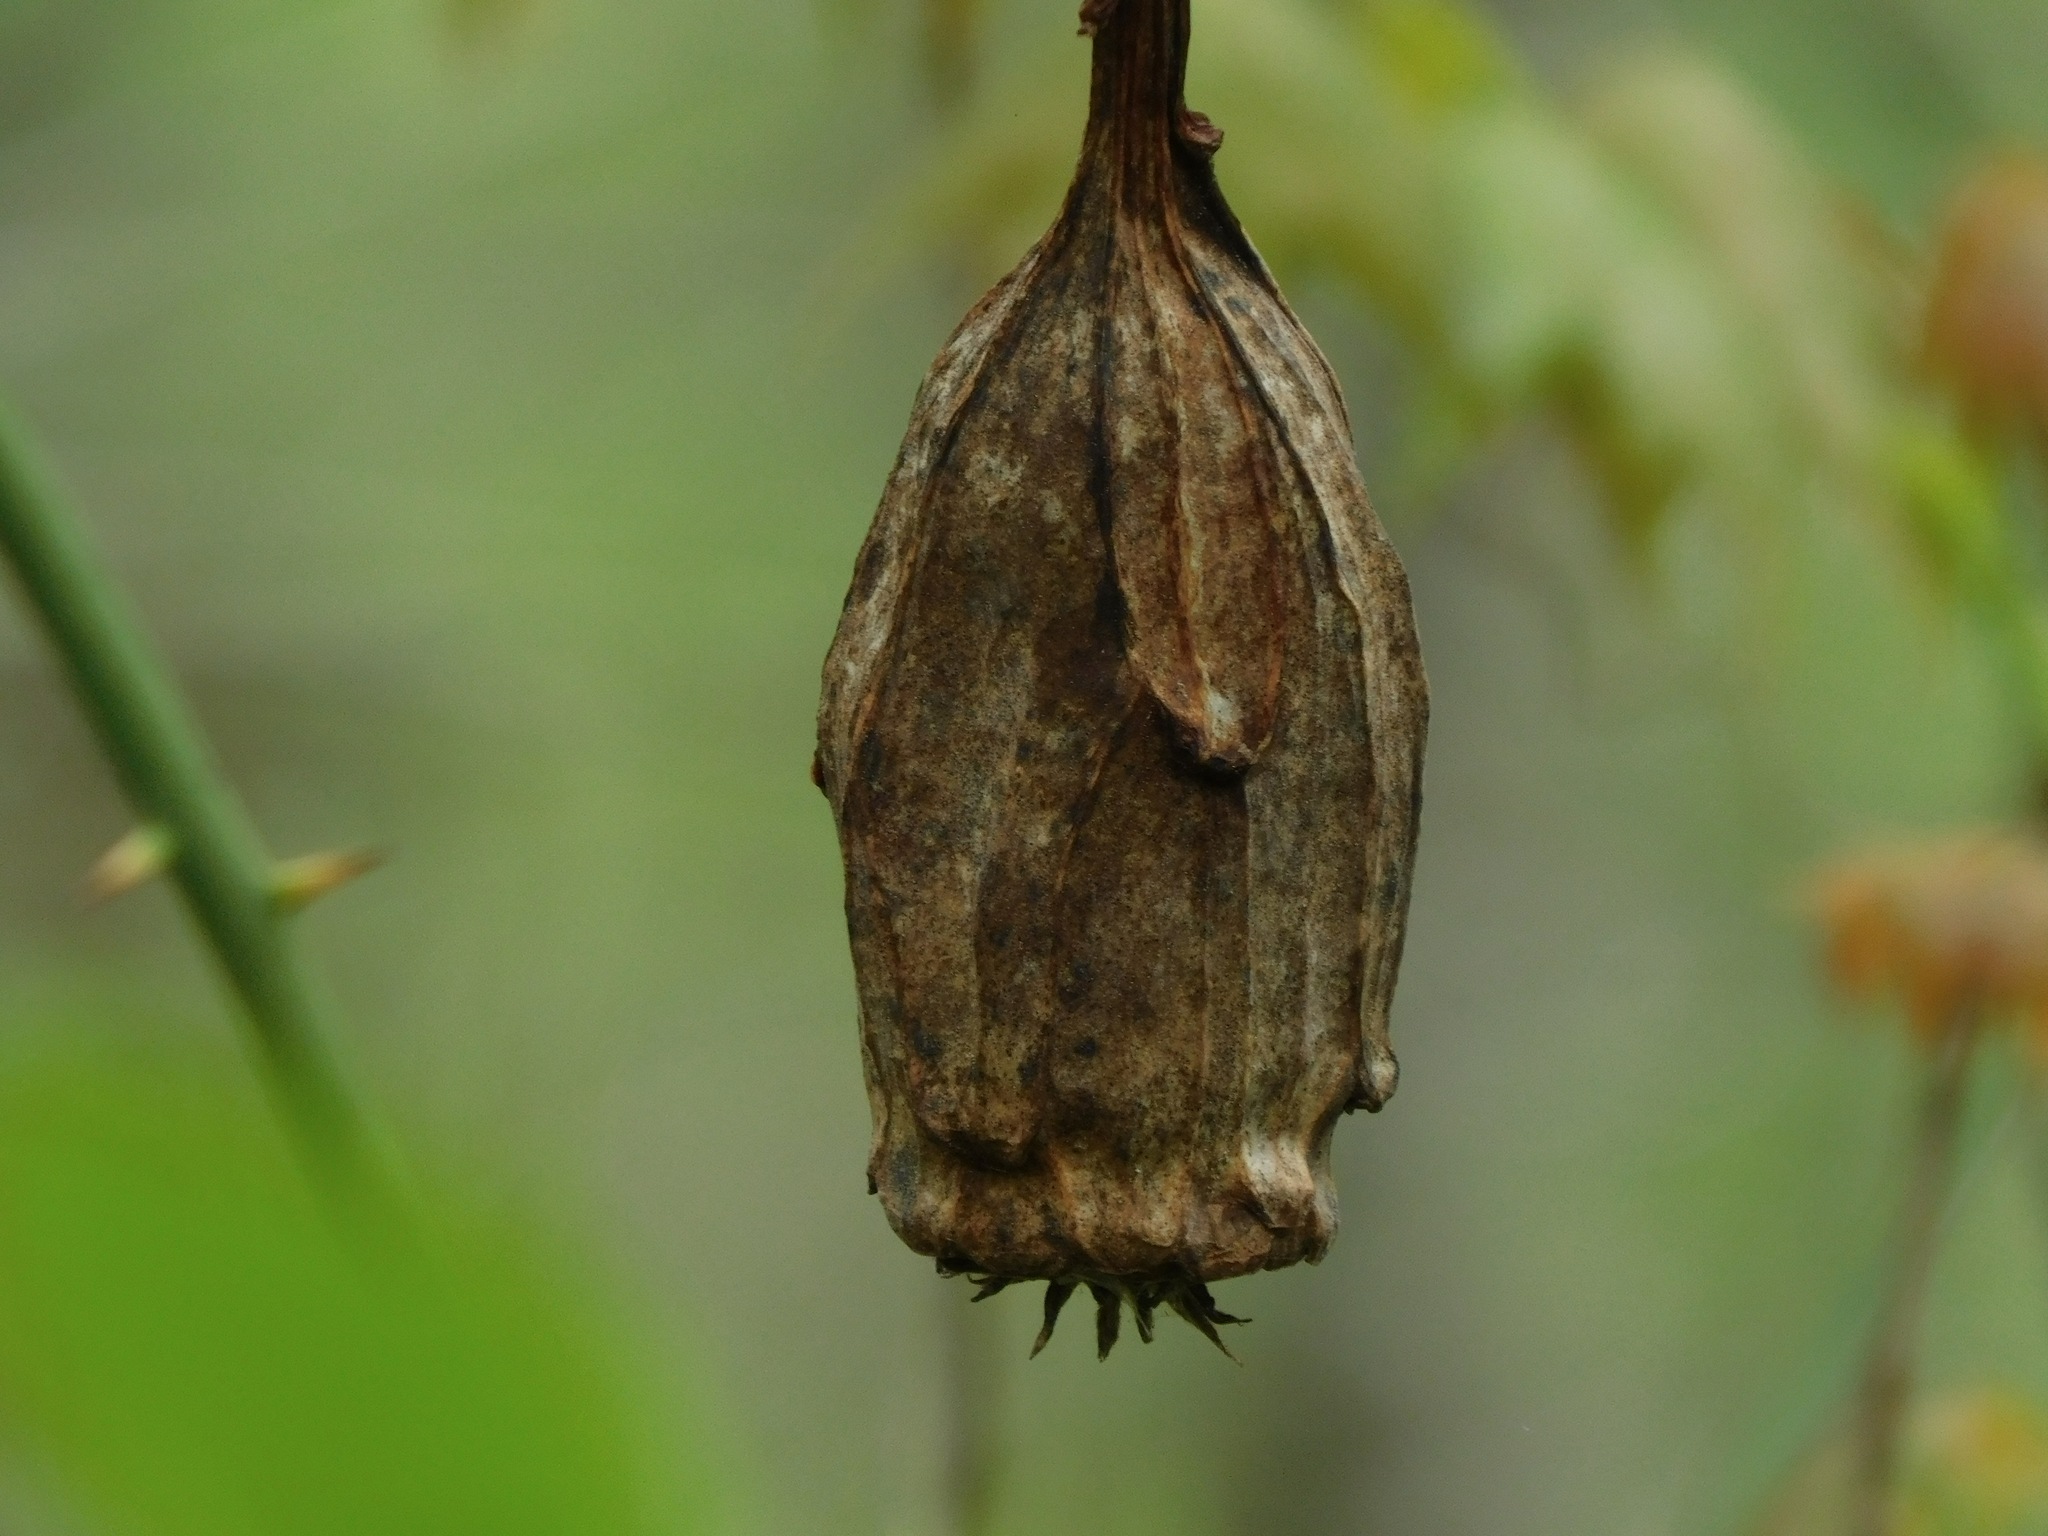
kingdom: Plantae
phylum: Tracheophyta
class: Magnoliopsida
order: Laurales
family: Calycanthaceae
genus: Calycanthus
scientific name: Calycanthus floridus
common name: Carolina-allspice
